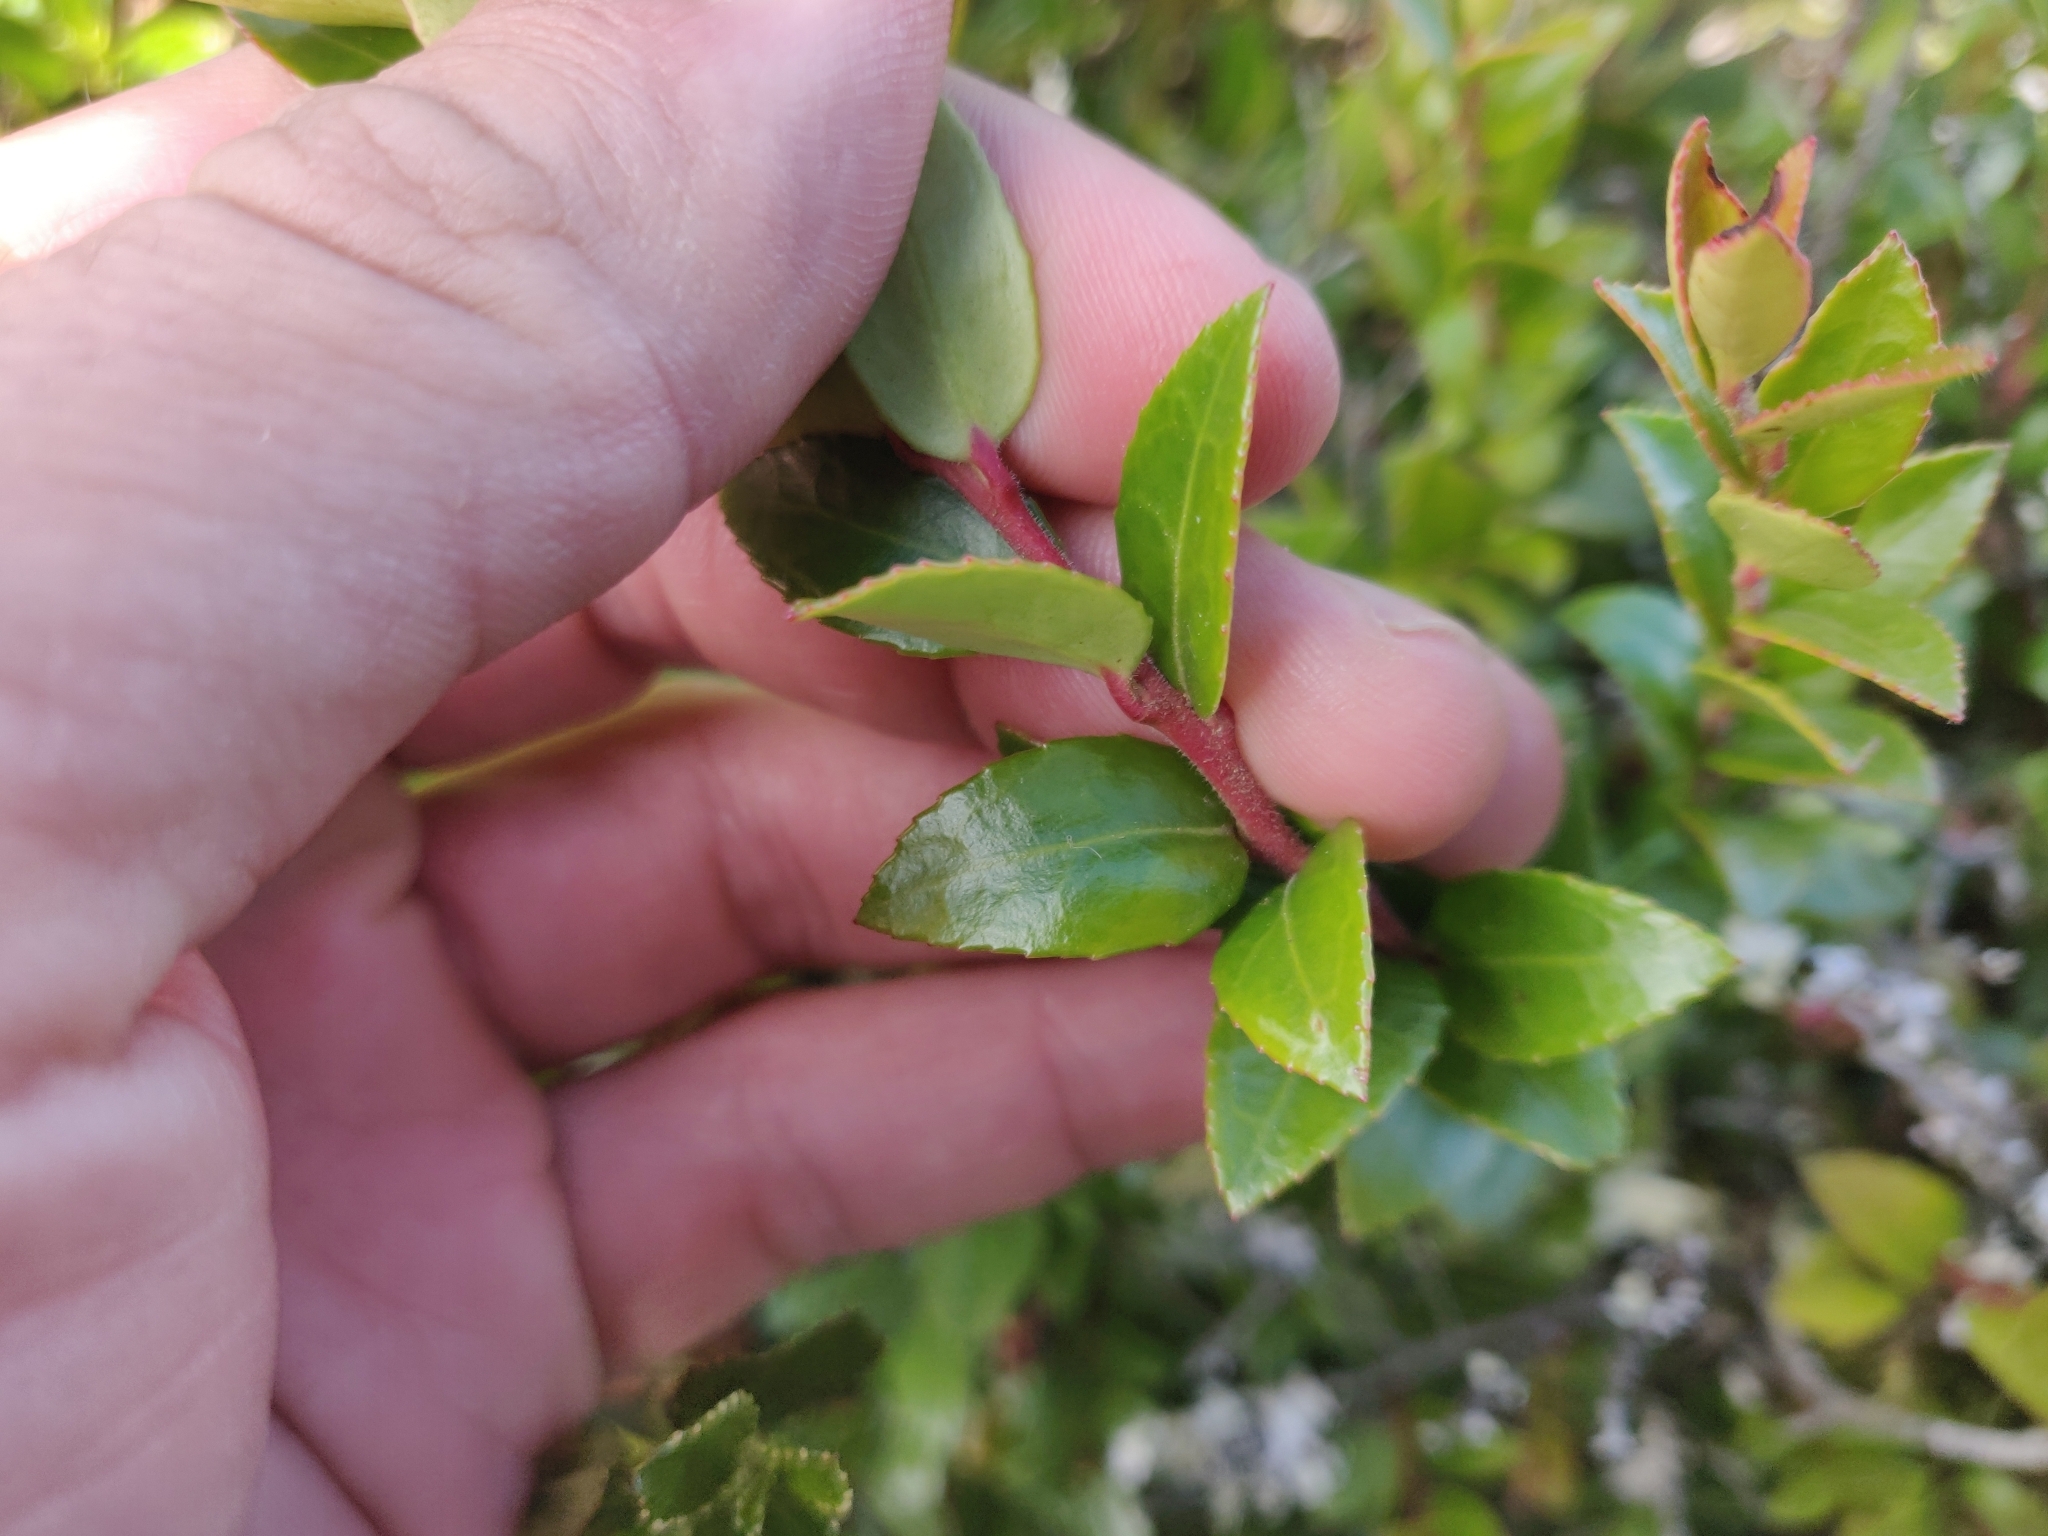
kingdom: Plantae
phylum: Tracheophyta
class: Magnoliopsida
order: Ericales
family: Ericaceae
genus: Vaccinium
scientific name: Vaccinium ovatum
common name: California-huckleberry
